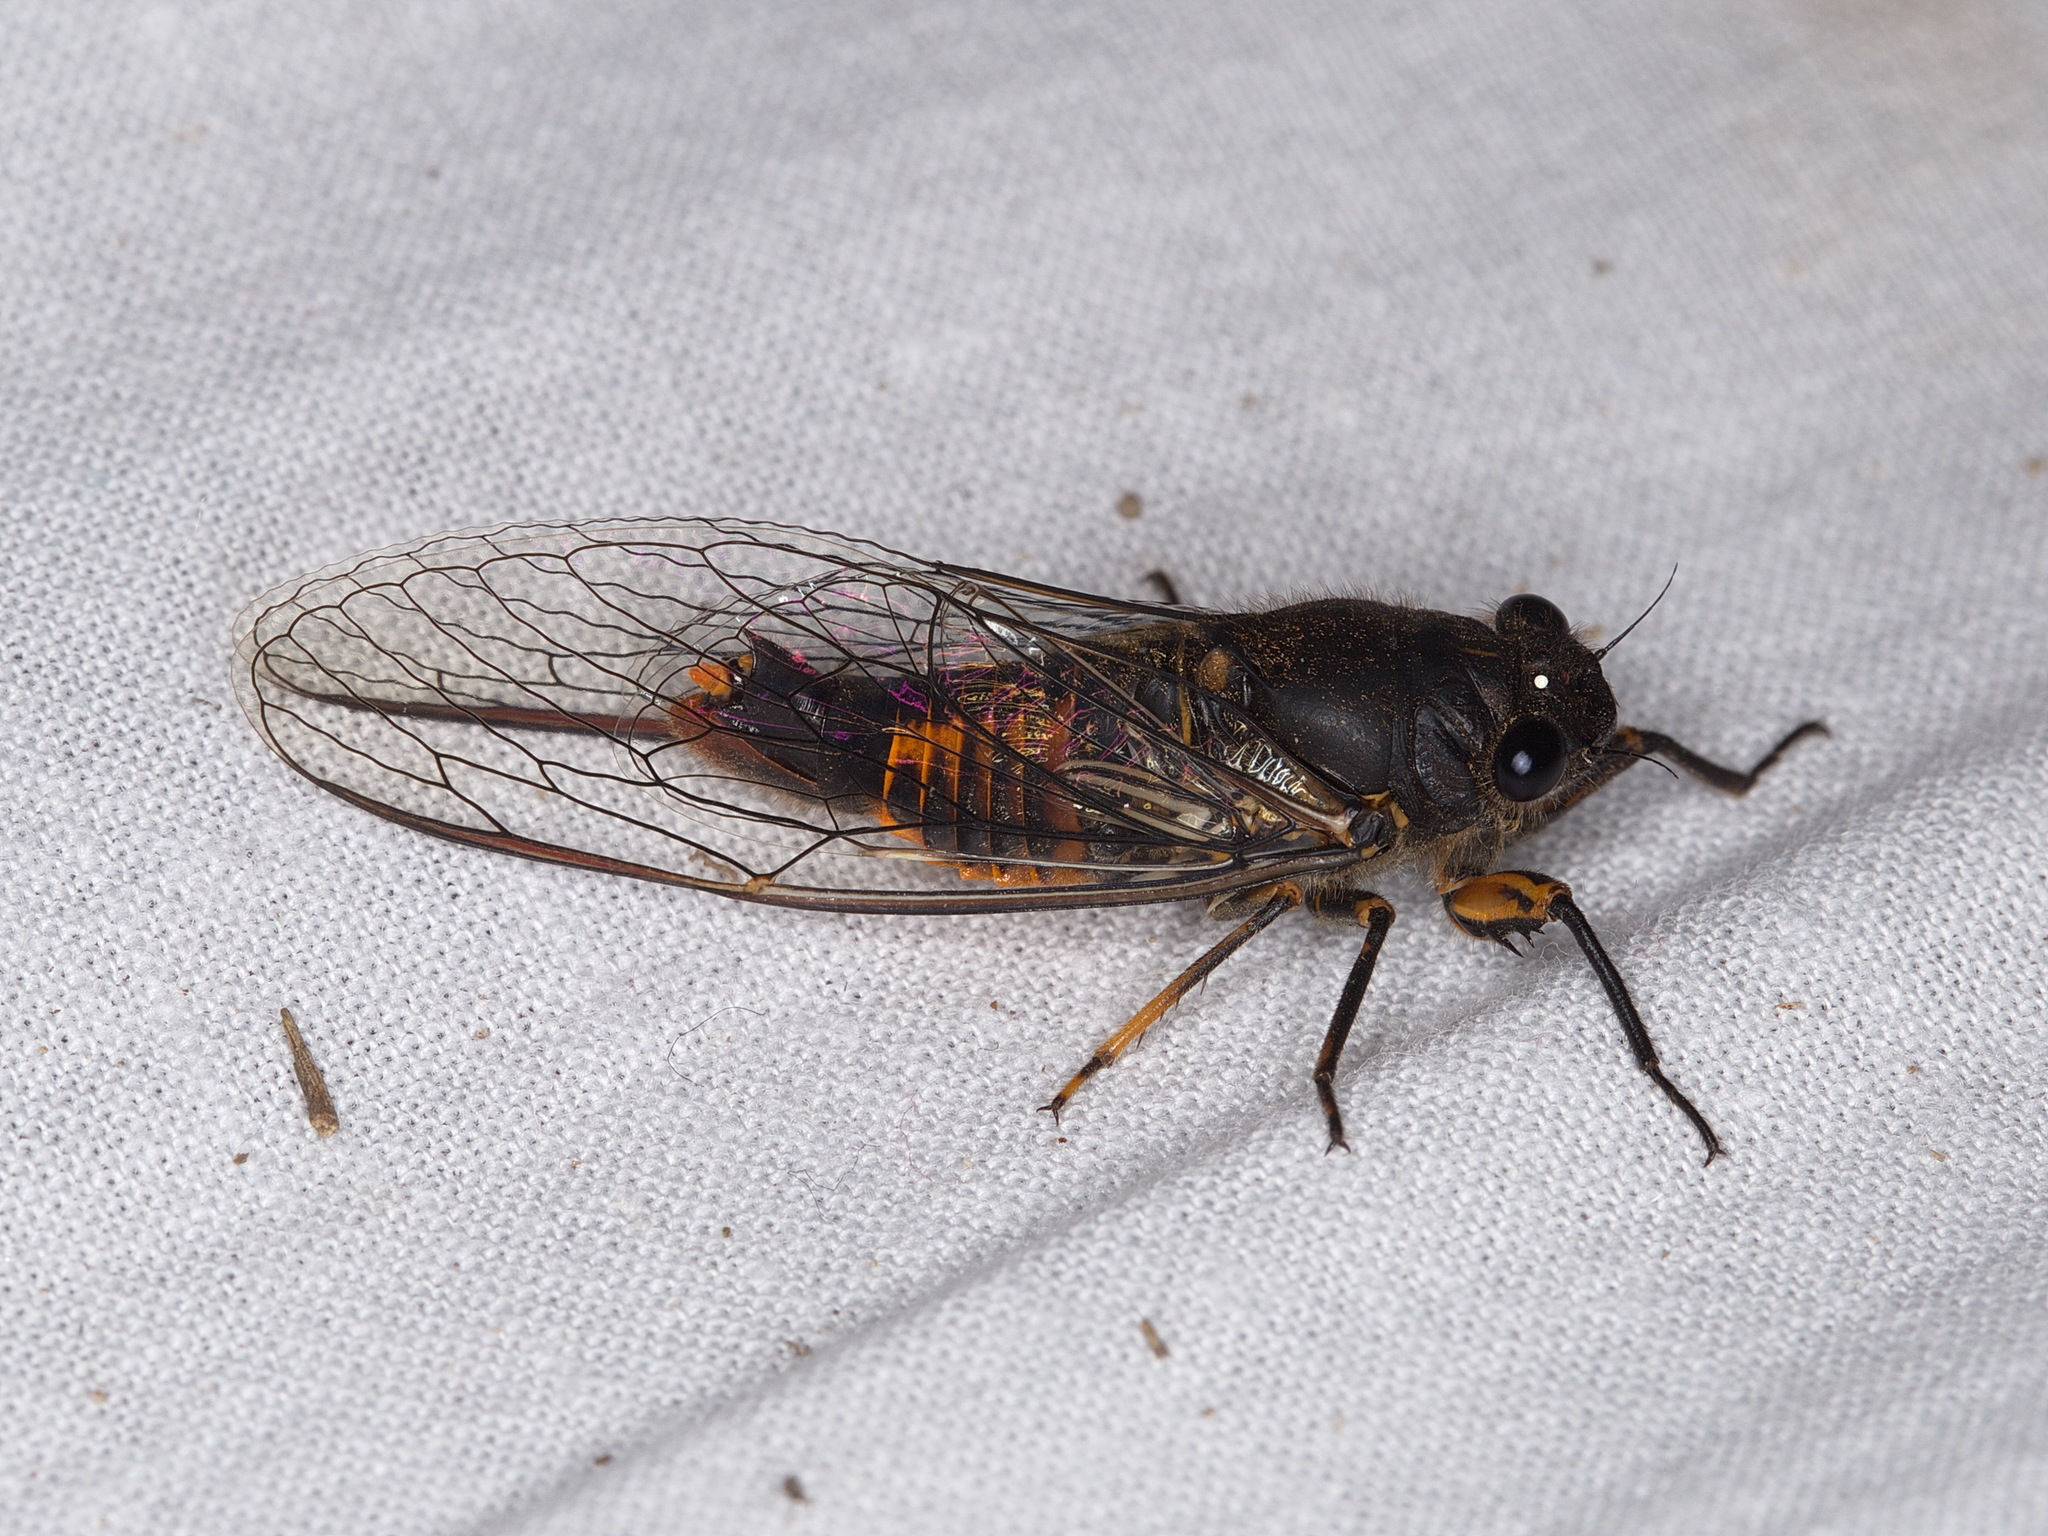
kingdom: Animalia
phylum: Arthropoda
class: Insecta
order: Hemiptera
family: Cicadidae
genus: Yoyetta
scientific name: Yoyetta robertsonae
